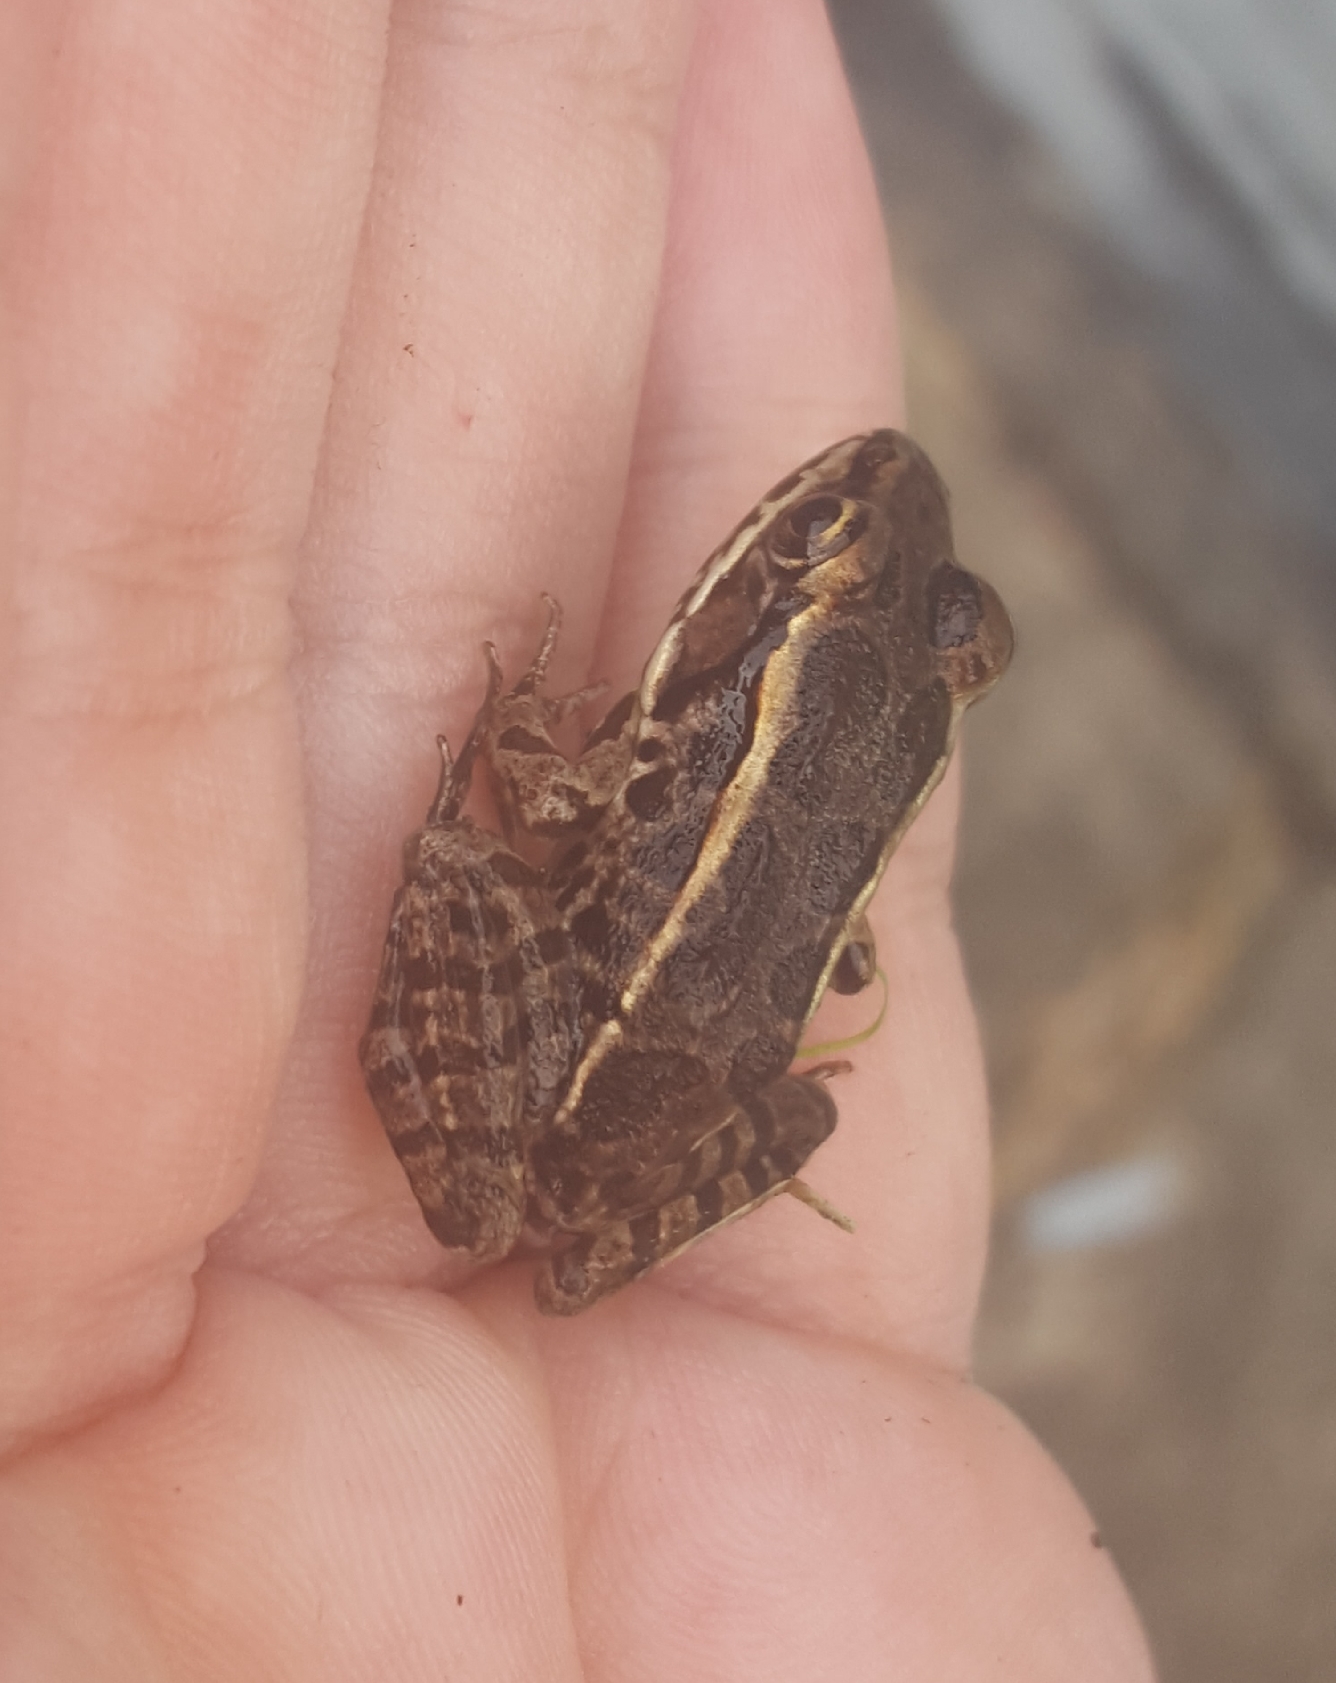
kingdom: Animalia
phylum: Chordata
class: Amphibia
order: Anura
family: Ranidae
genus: Lithobates
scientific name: Lithobates palustris
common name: Pickerel frog
